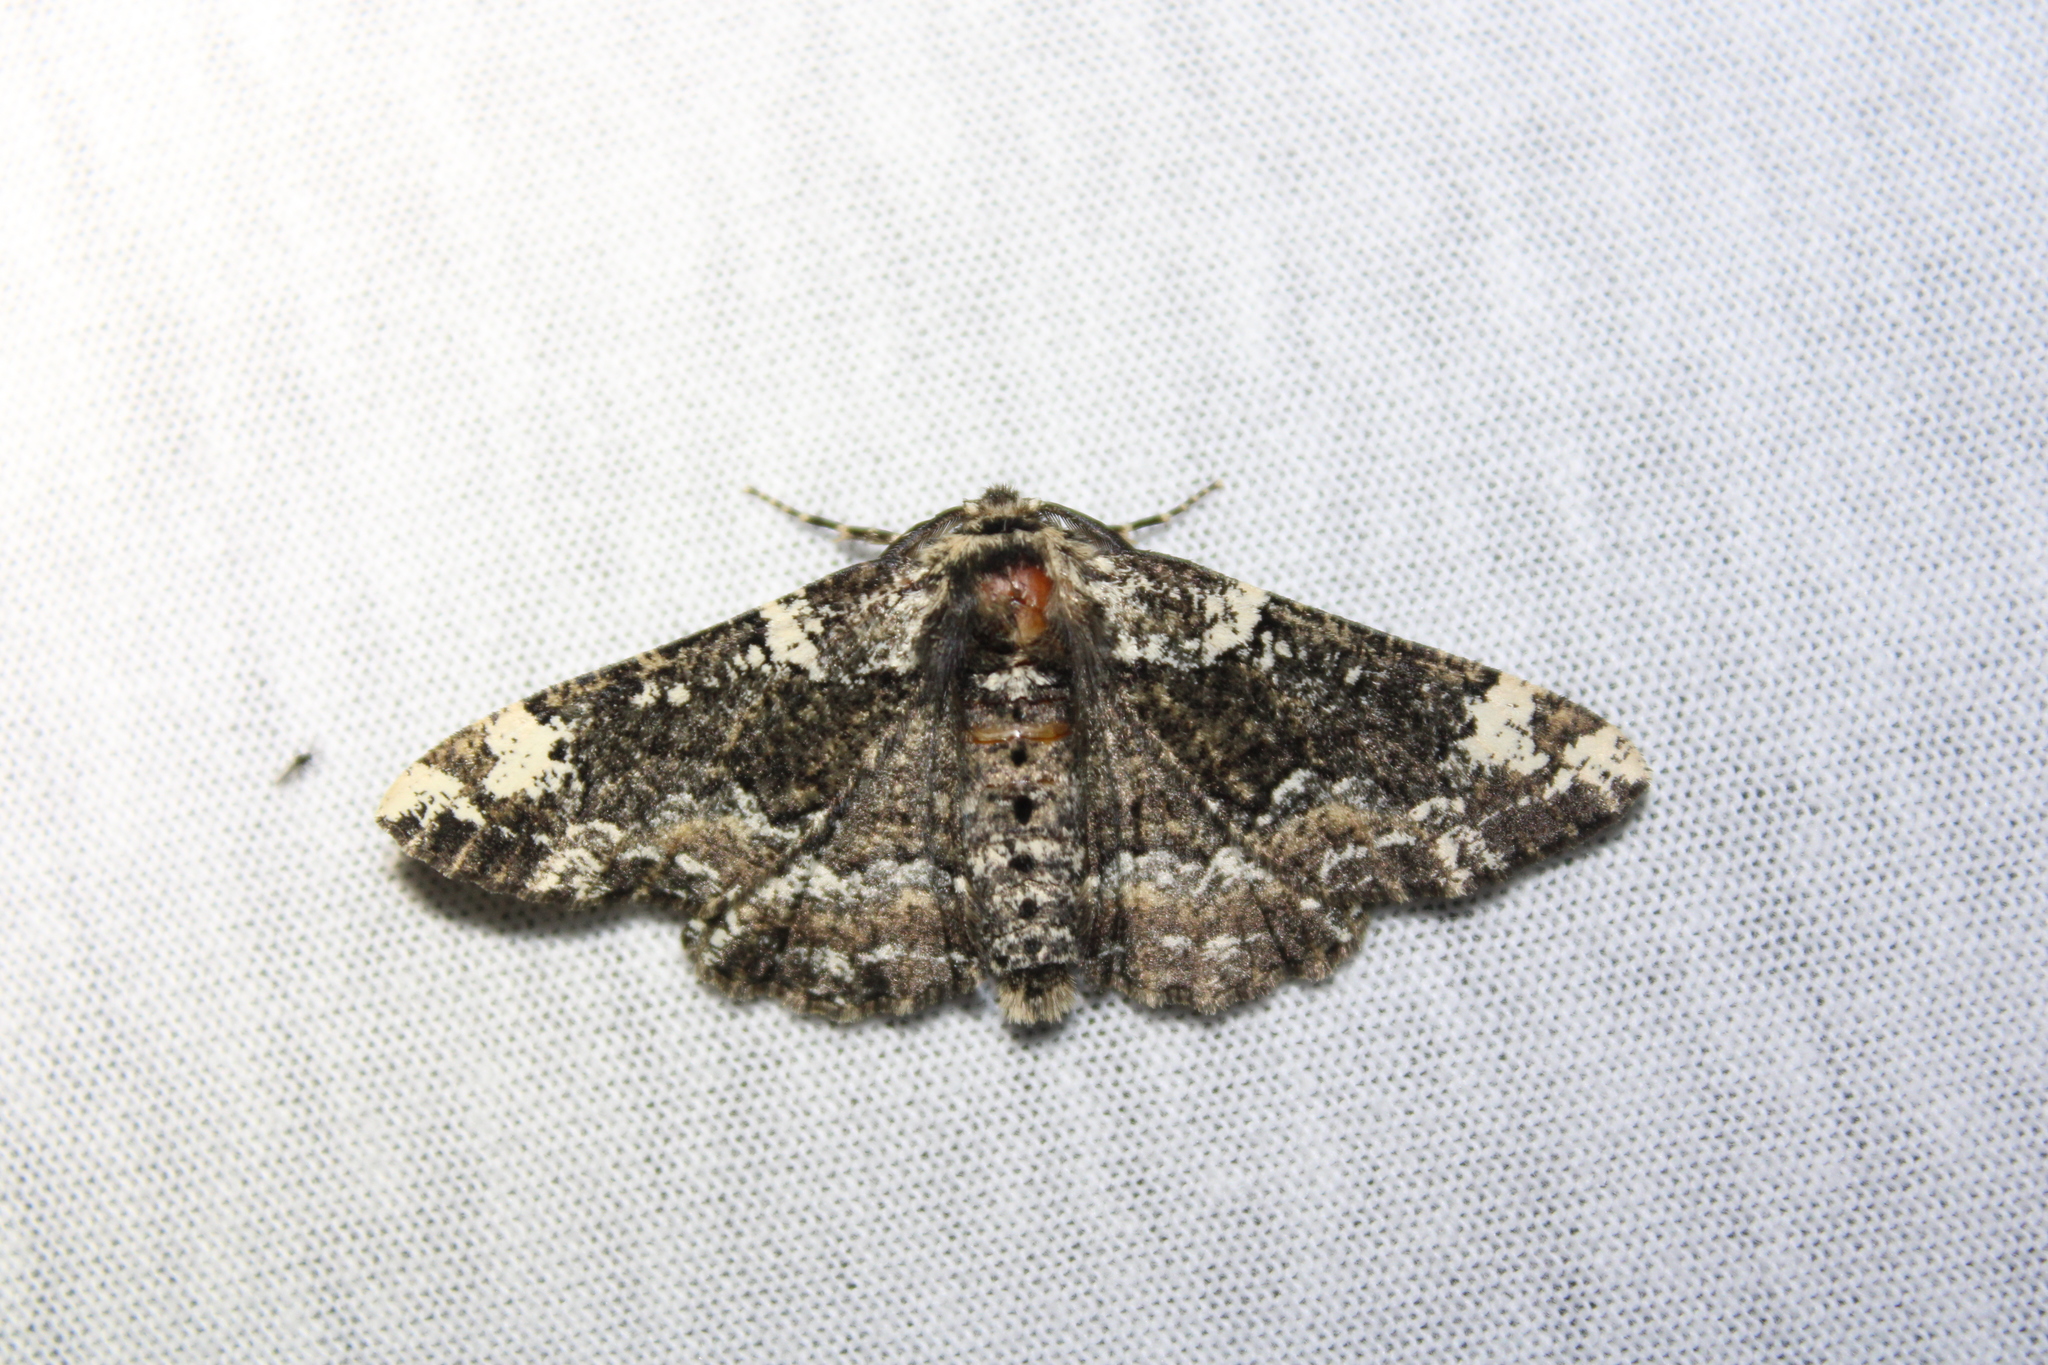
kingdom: Animalia
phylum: Arthropoda
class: Insecta
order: Lepidoptera
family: Geometridae
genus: Phaeoura
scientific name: Phaeoura quernaria
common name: Oak beauty
